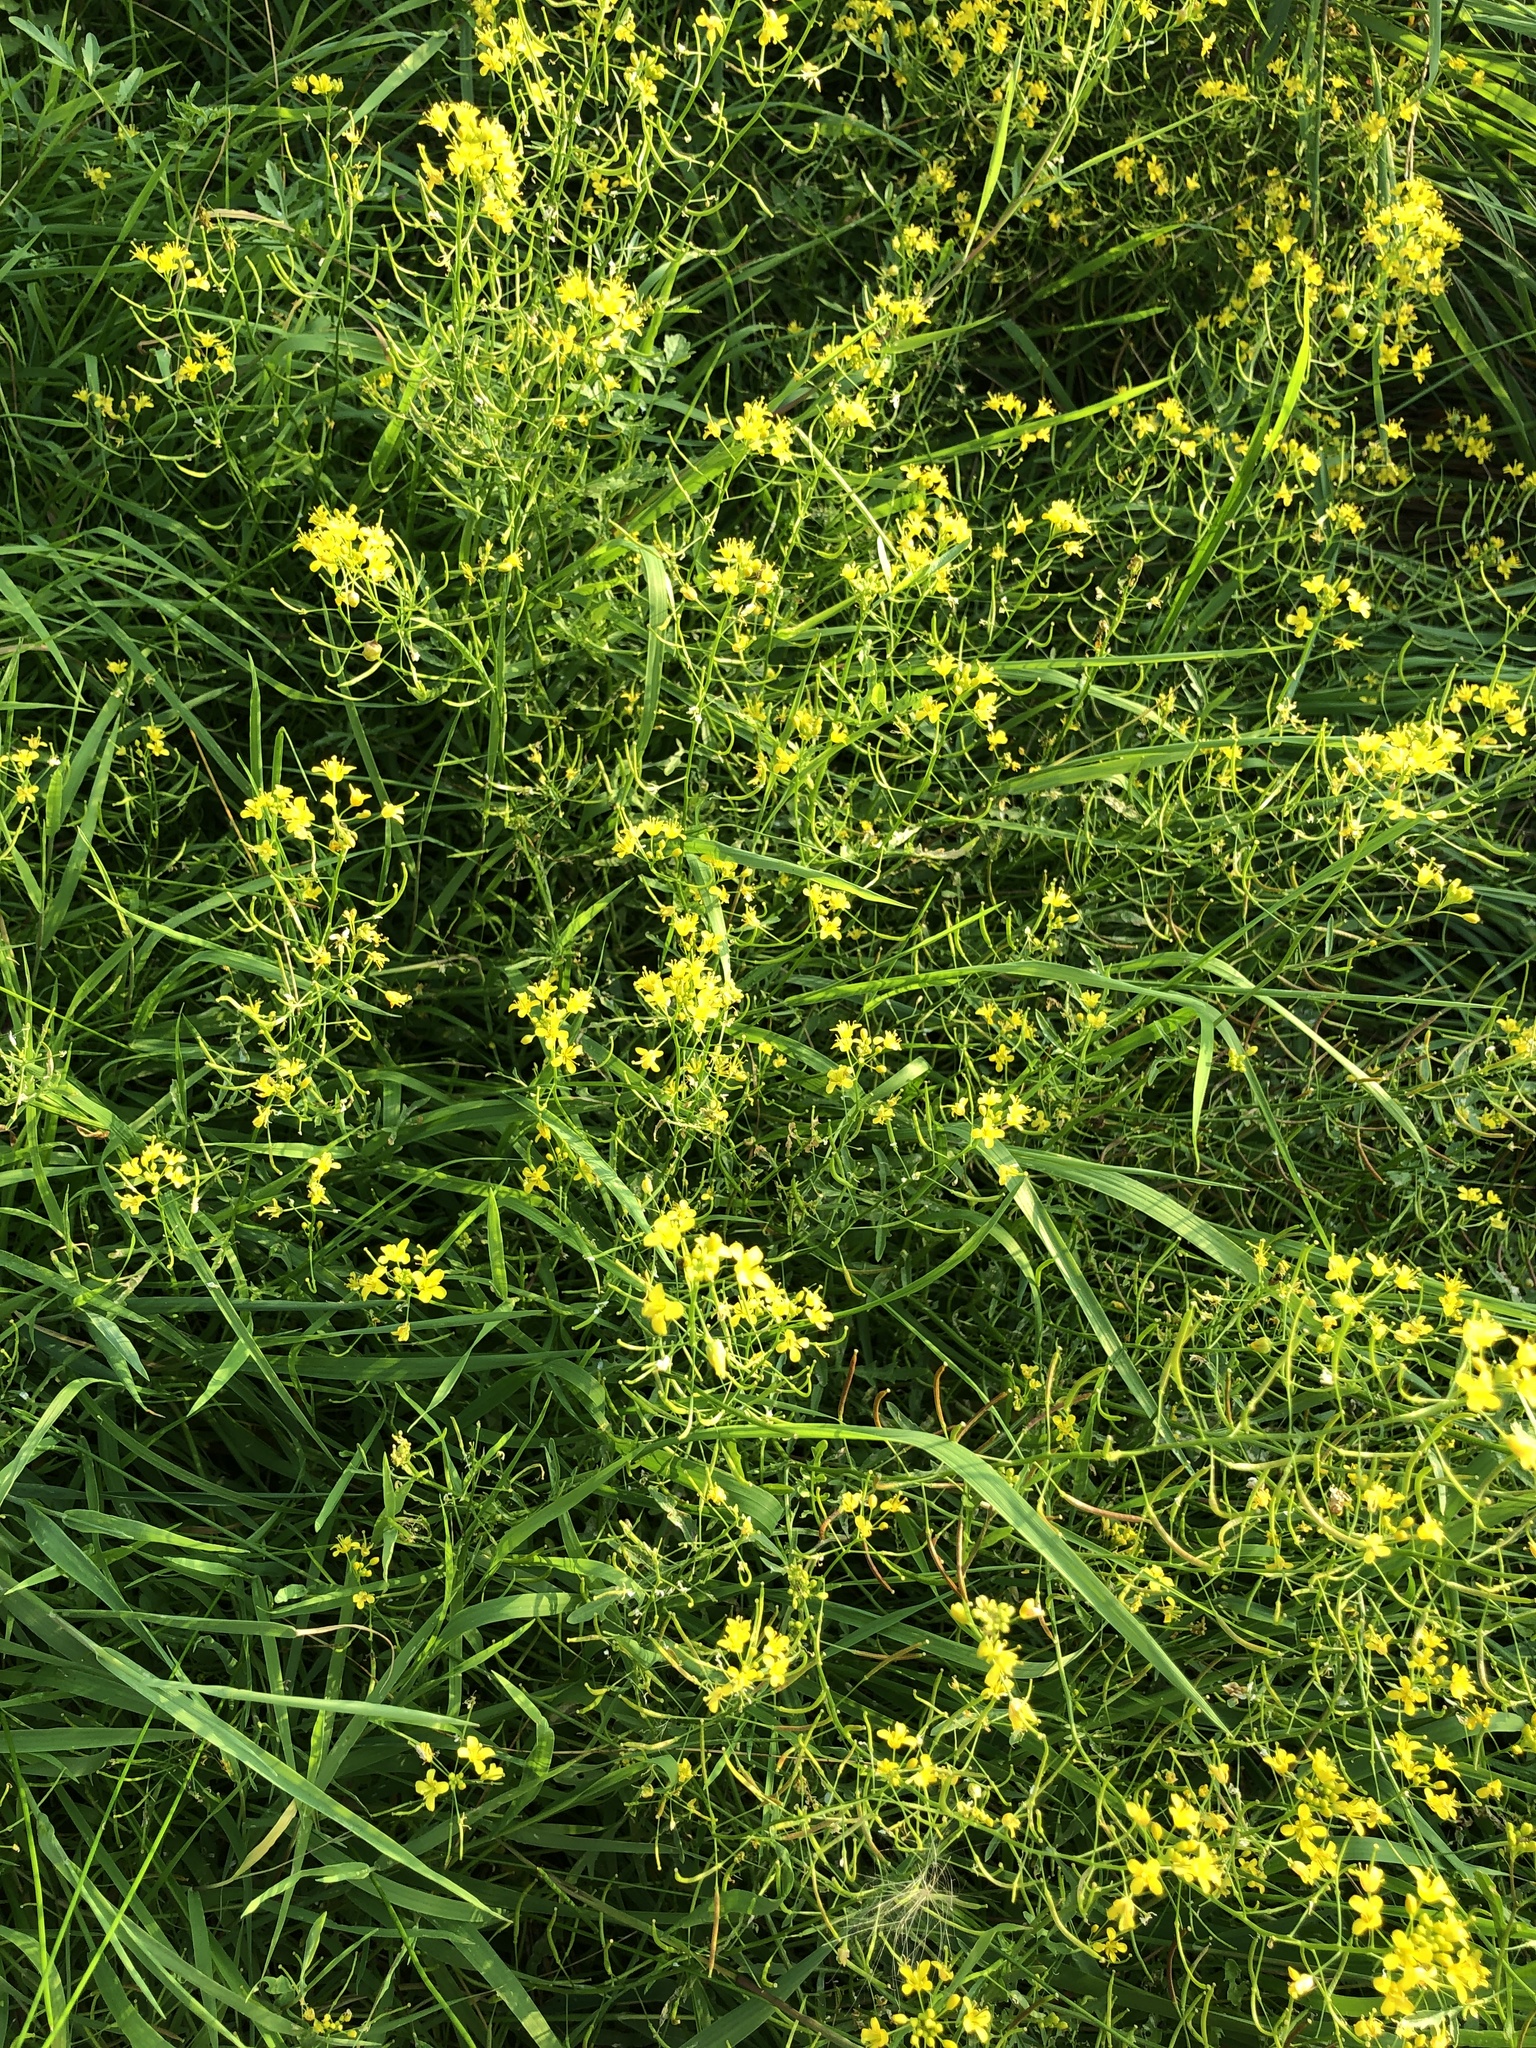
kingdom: Plantae
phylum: Tracheophyta
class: Magnoliopsida
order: Brassicales
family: Brassicaceae
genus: Rorippa
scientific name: Rorippa sylvestris
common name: Creeping yellowcress
